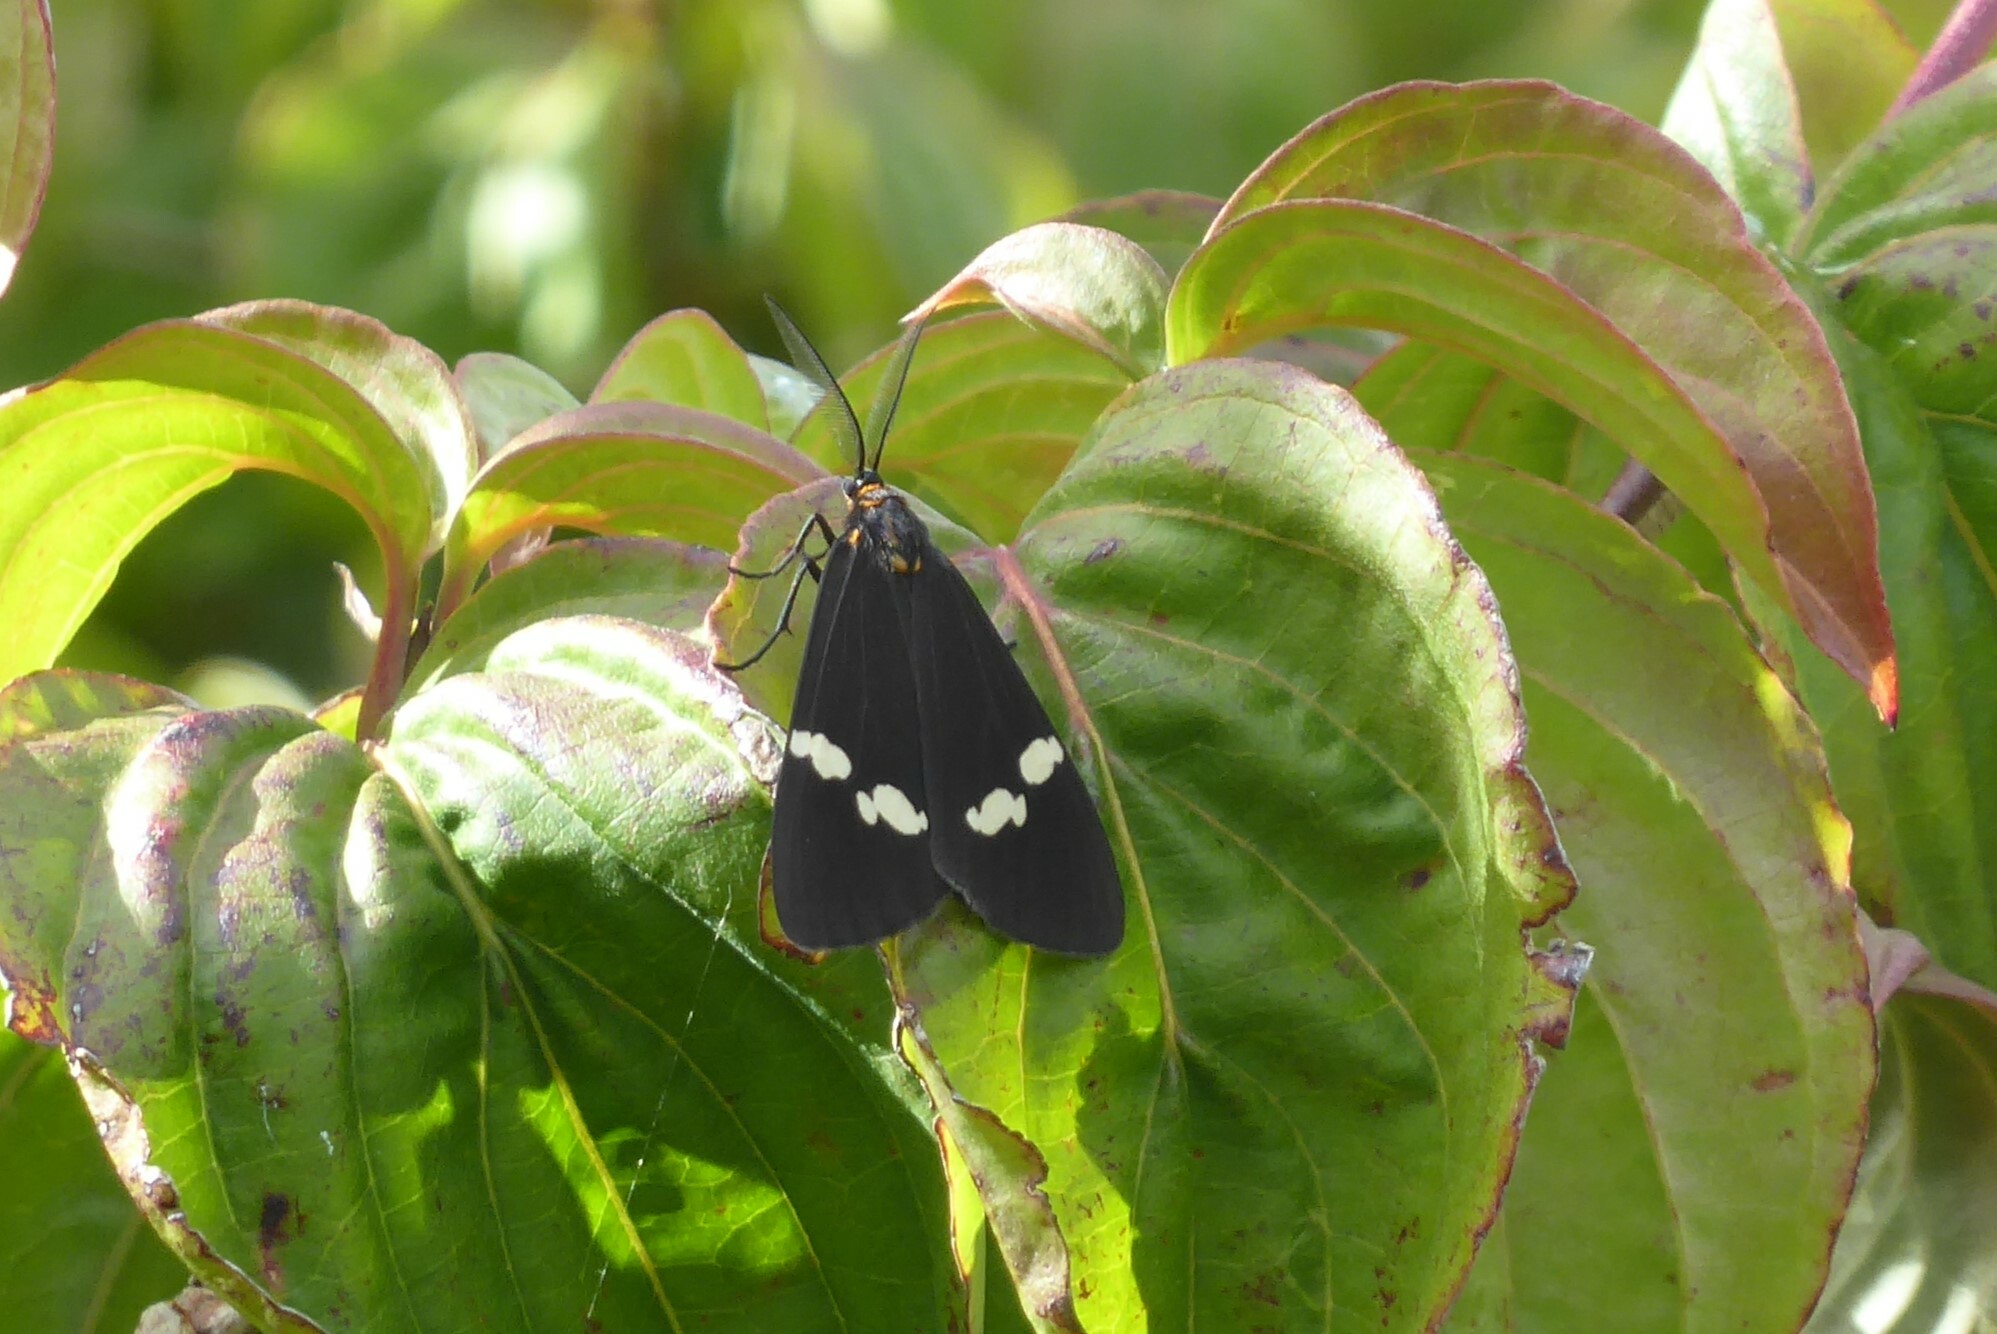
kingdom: Animalia
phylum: Arthropoda
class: Insecta
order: Lepidoptera
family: Erebidae
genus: Nyctemera
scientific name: Nyctemera annulatum
